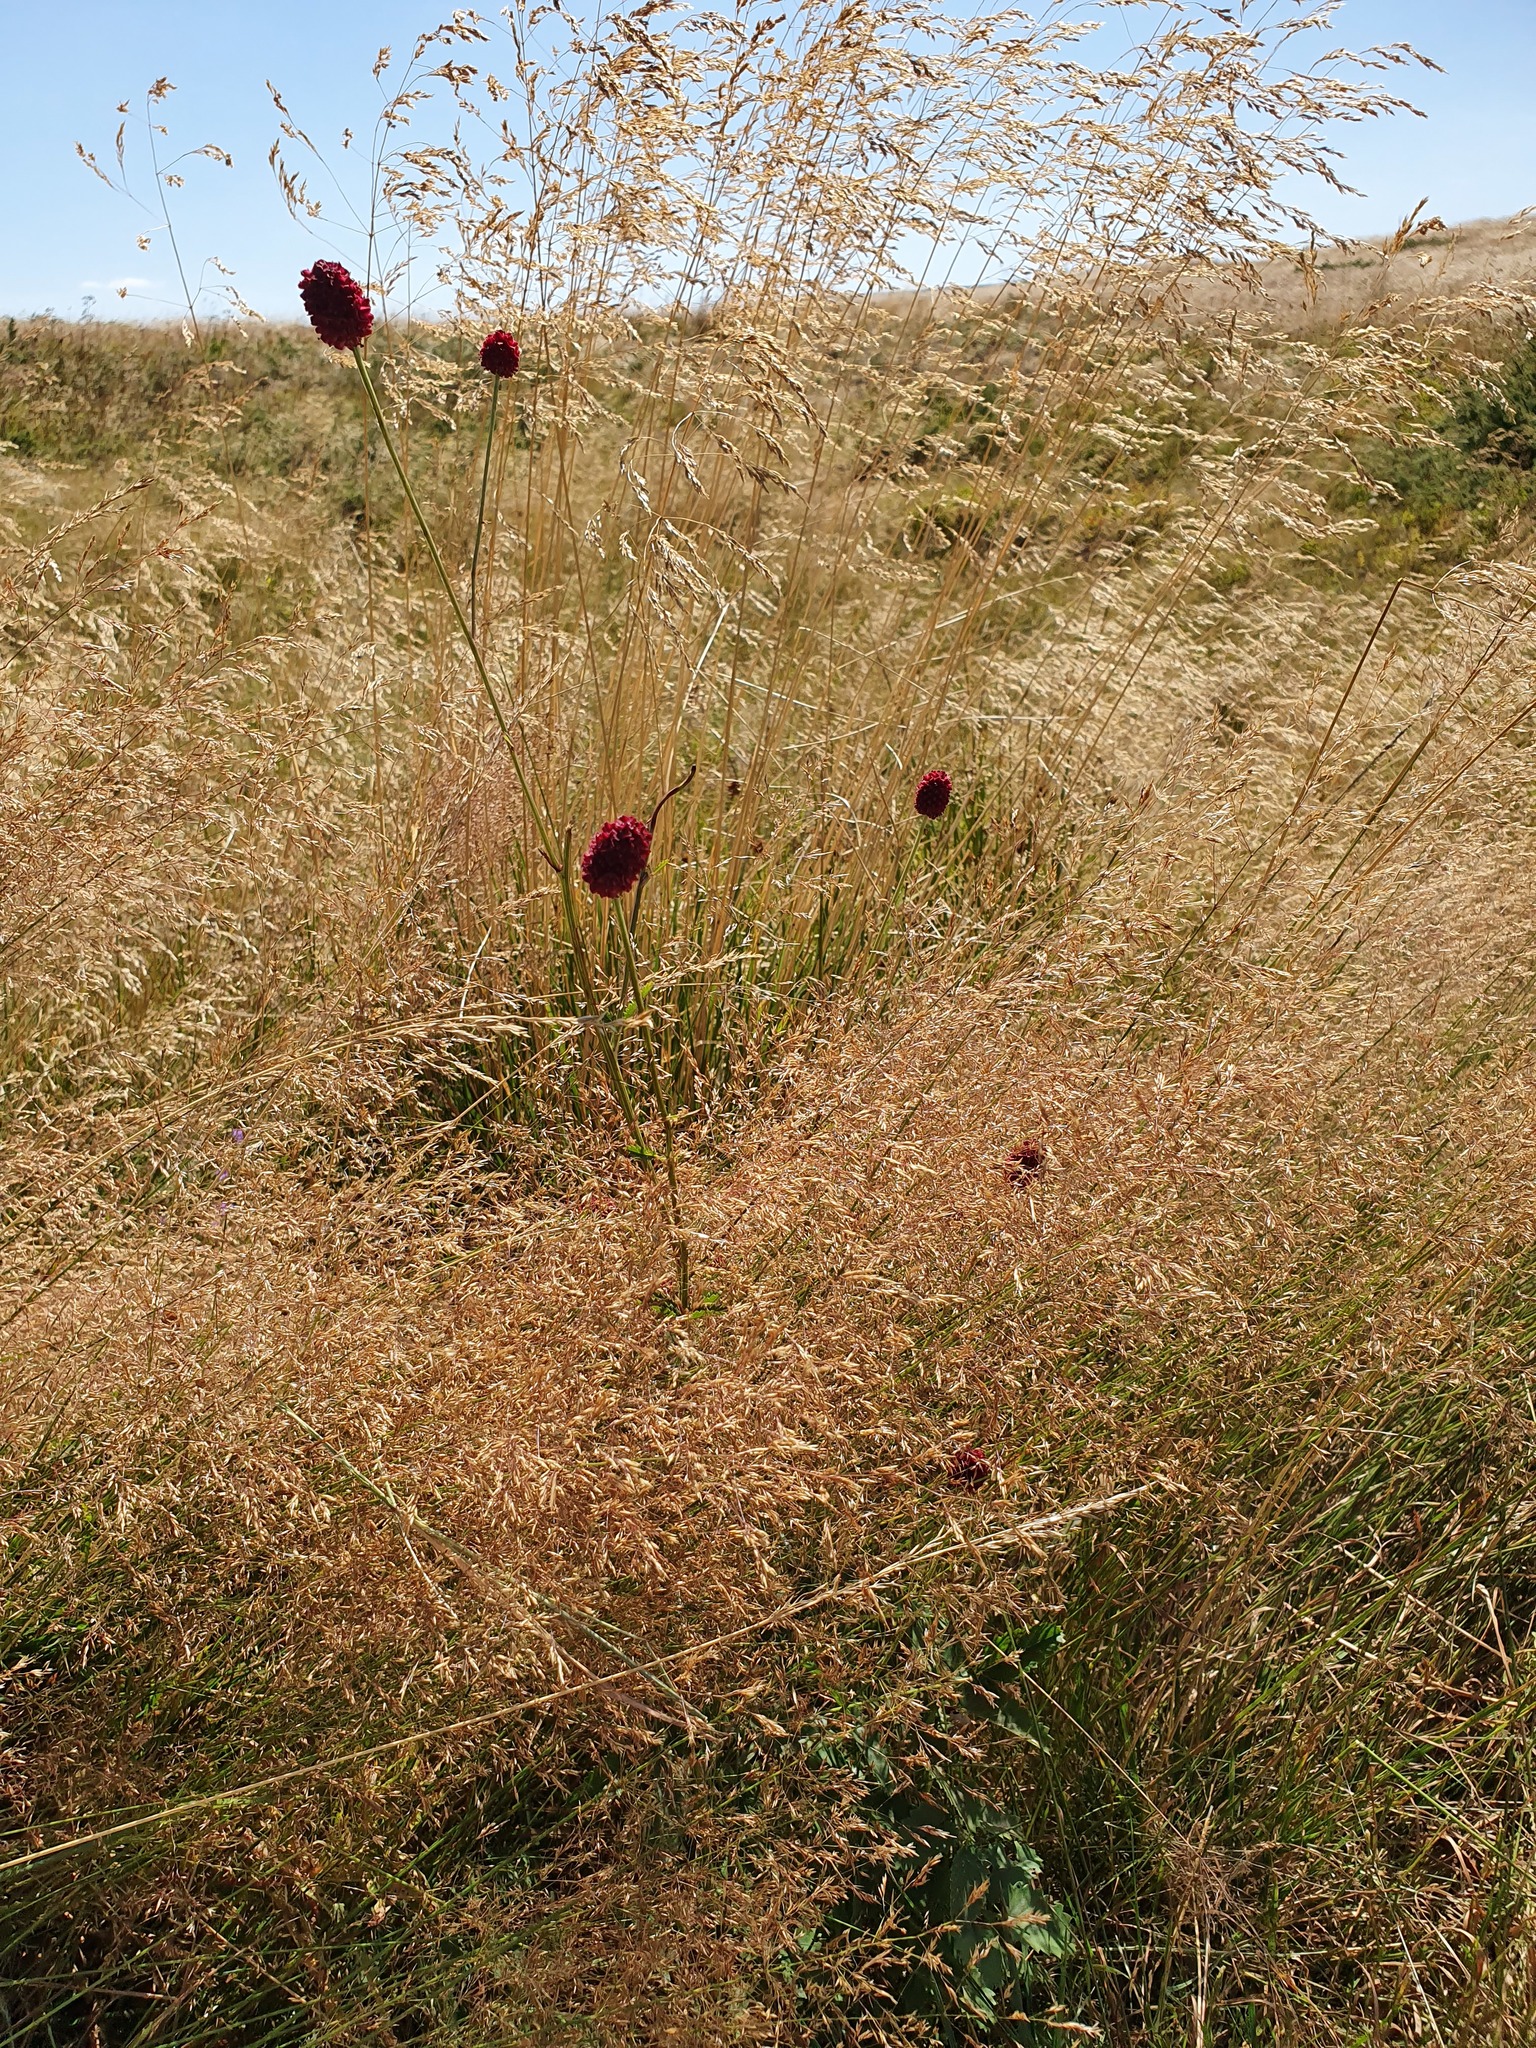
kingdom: Plantae
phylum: Tracheophyta
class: Magnoliopsida
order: Rosales
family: Rosaceae
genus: Sanguisorba
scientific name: Sanguisorba officinalis
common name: Great burnet
